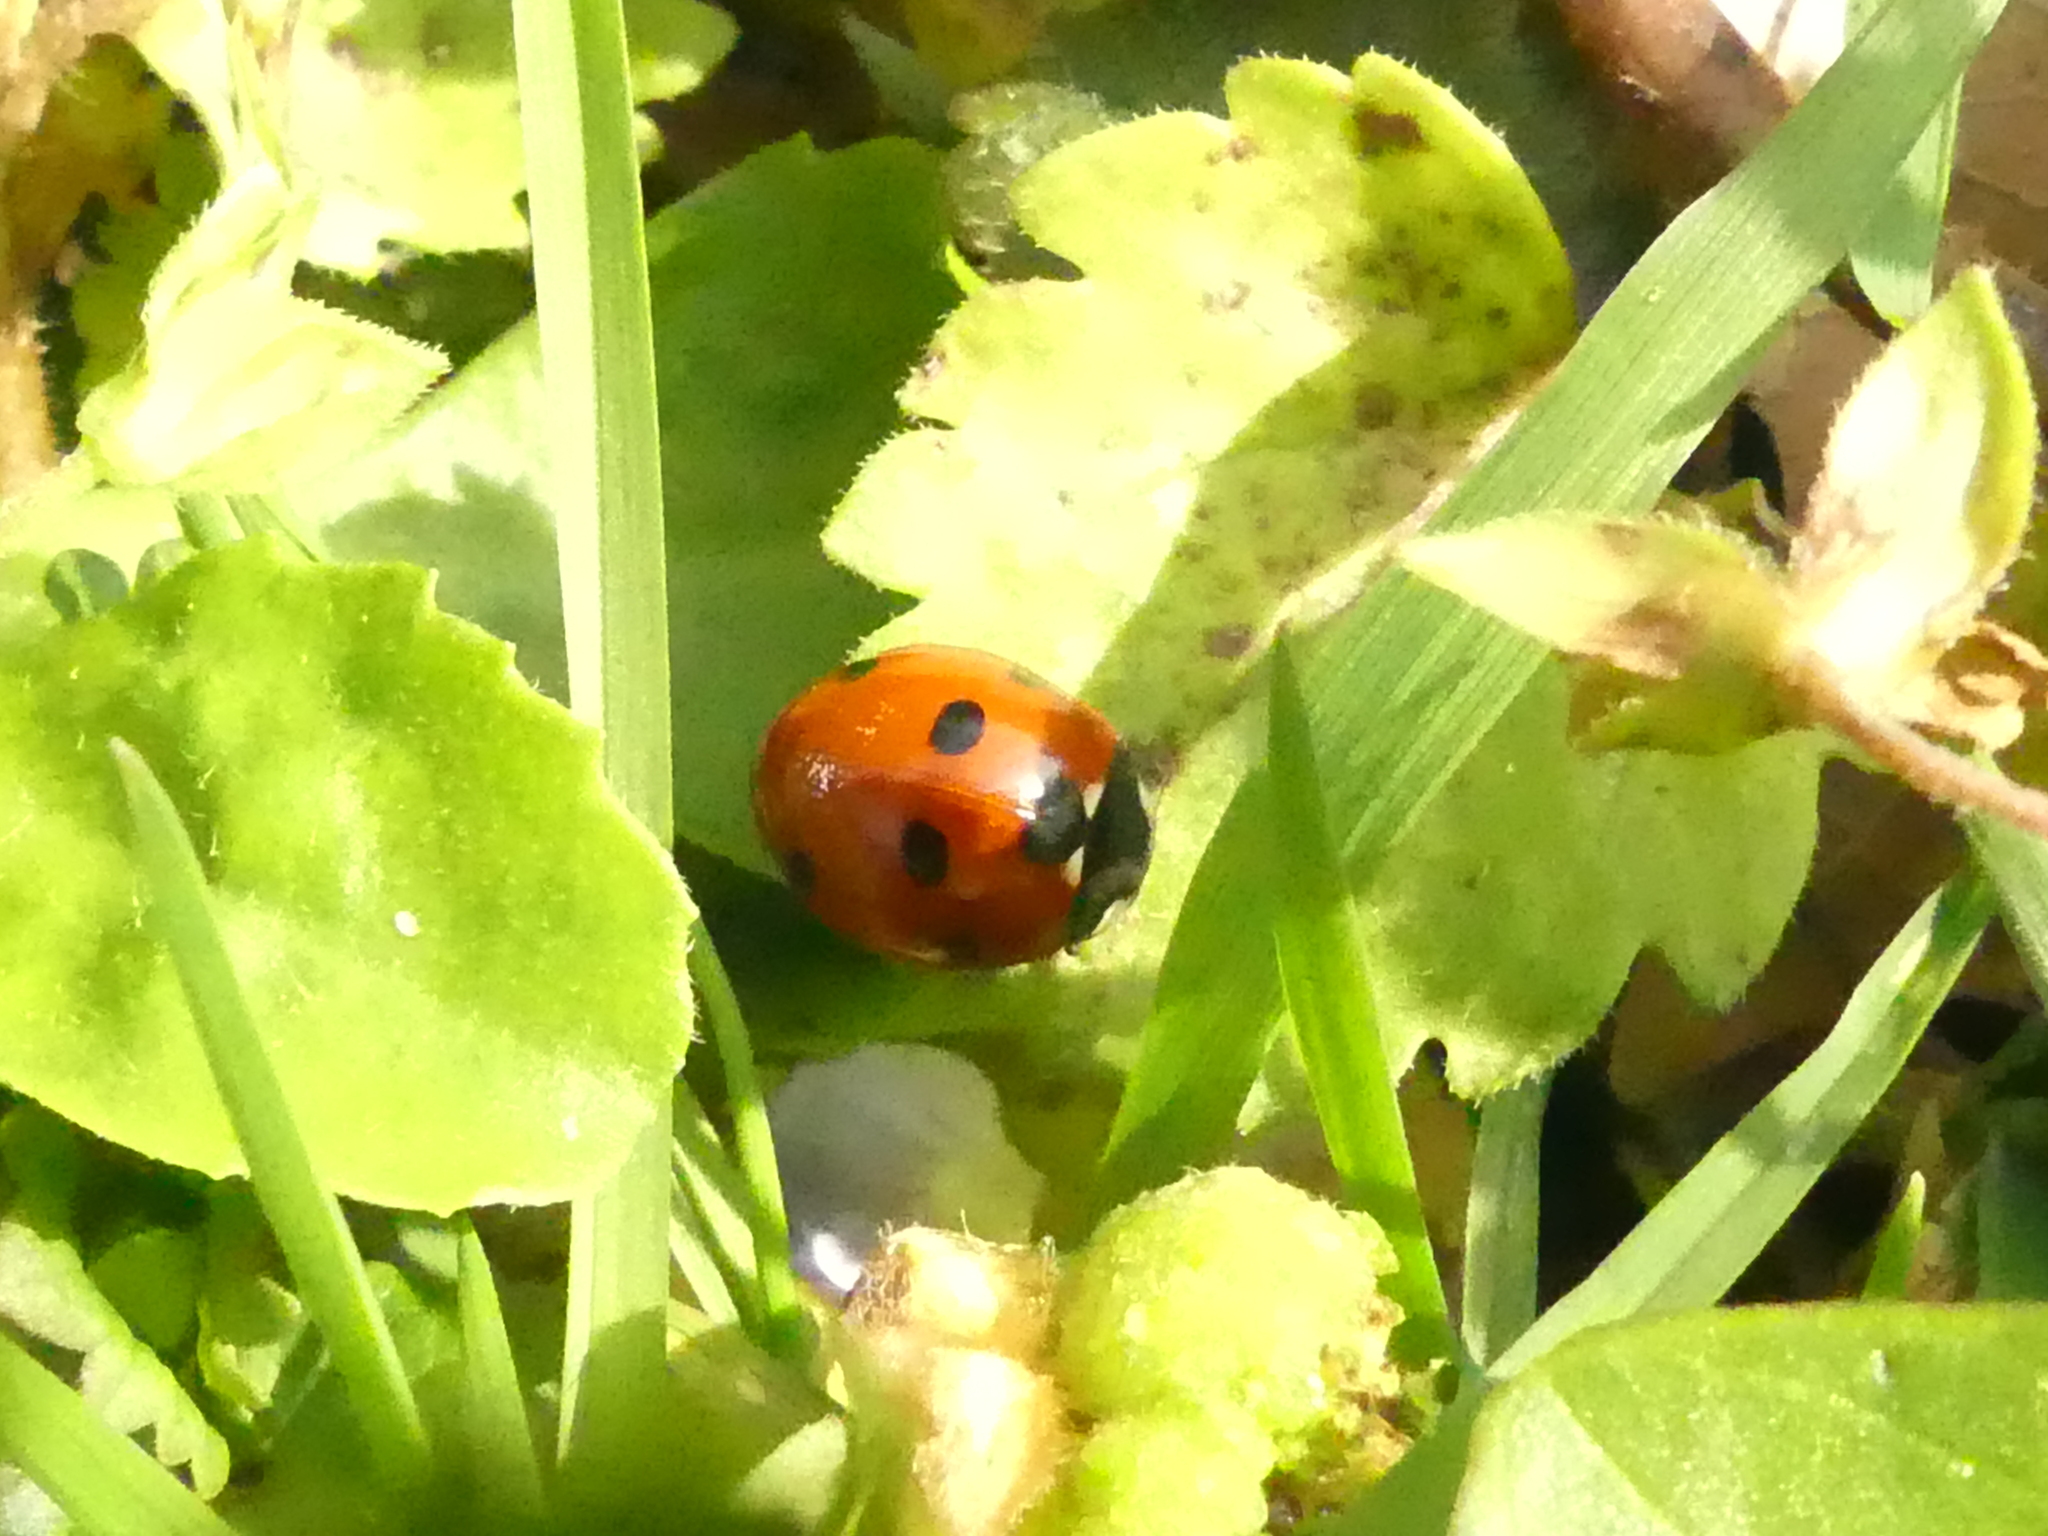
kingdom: Animalia
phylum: Arthropoda
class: Insecta
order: Coleoptera
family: Coccinellidae
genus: Coccinella
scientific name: Coccinella septempunctata
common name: Sevenspotted lady beetle
